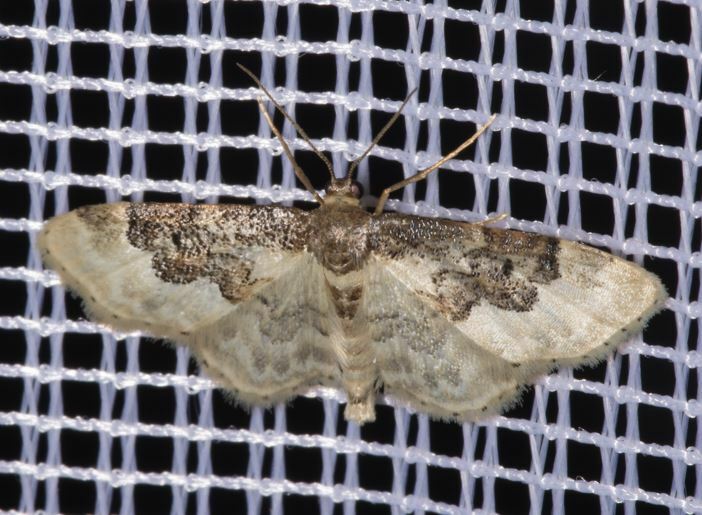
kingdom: Animalia
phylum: Arthropoda
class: Insecta
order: Lepidoptera
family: Geometridae
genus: Idaea
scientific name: Idaea rusticata
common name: Least carpet
